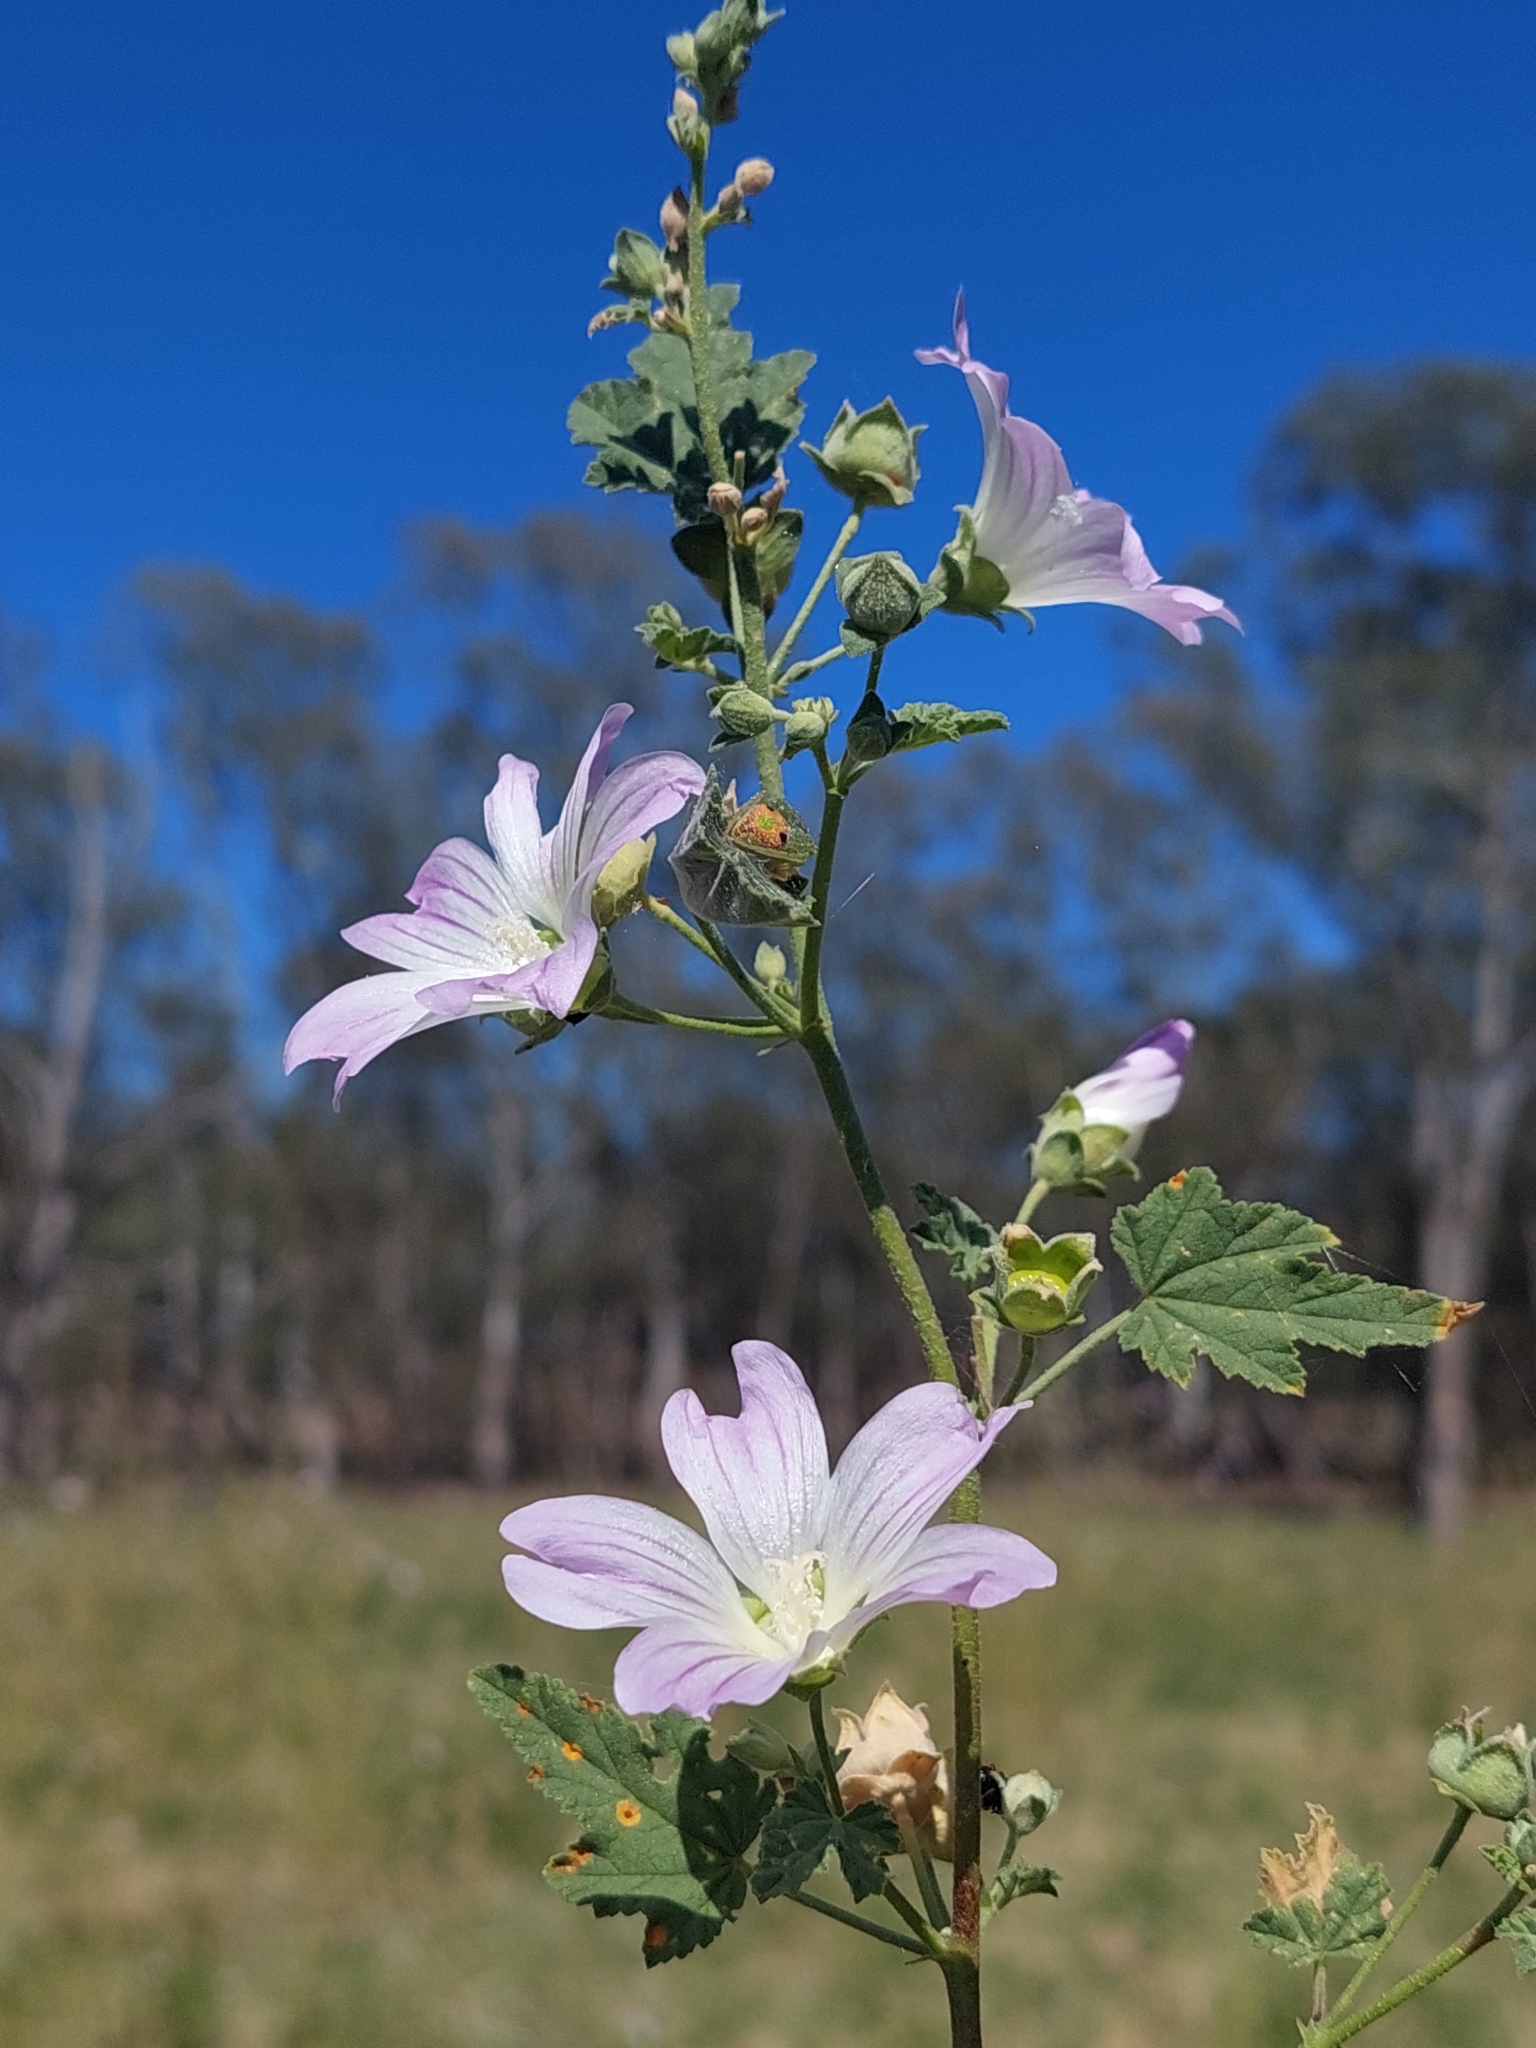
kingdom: Plantae
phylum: Tracheophyta
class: Magnoliopsida
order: Malvales
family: Malvaceae
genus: Malva
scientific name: Malva weinmanniana
